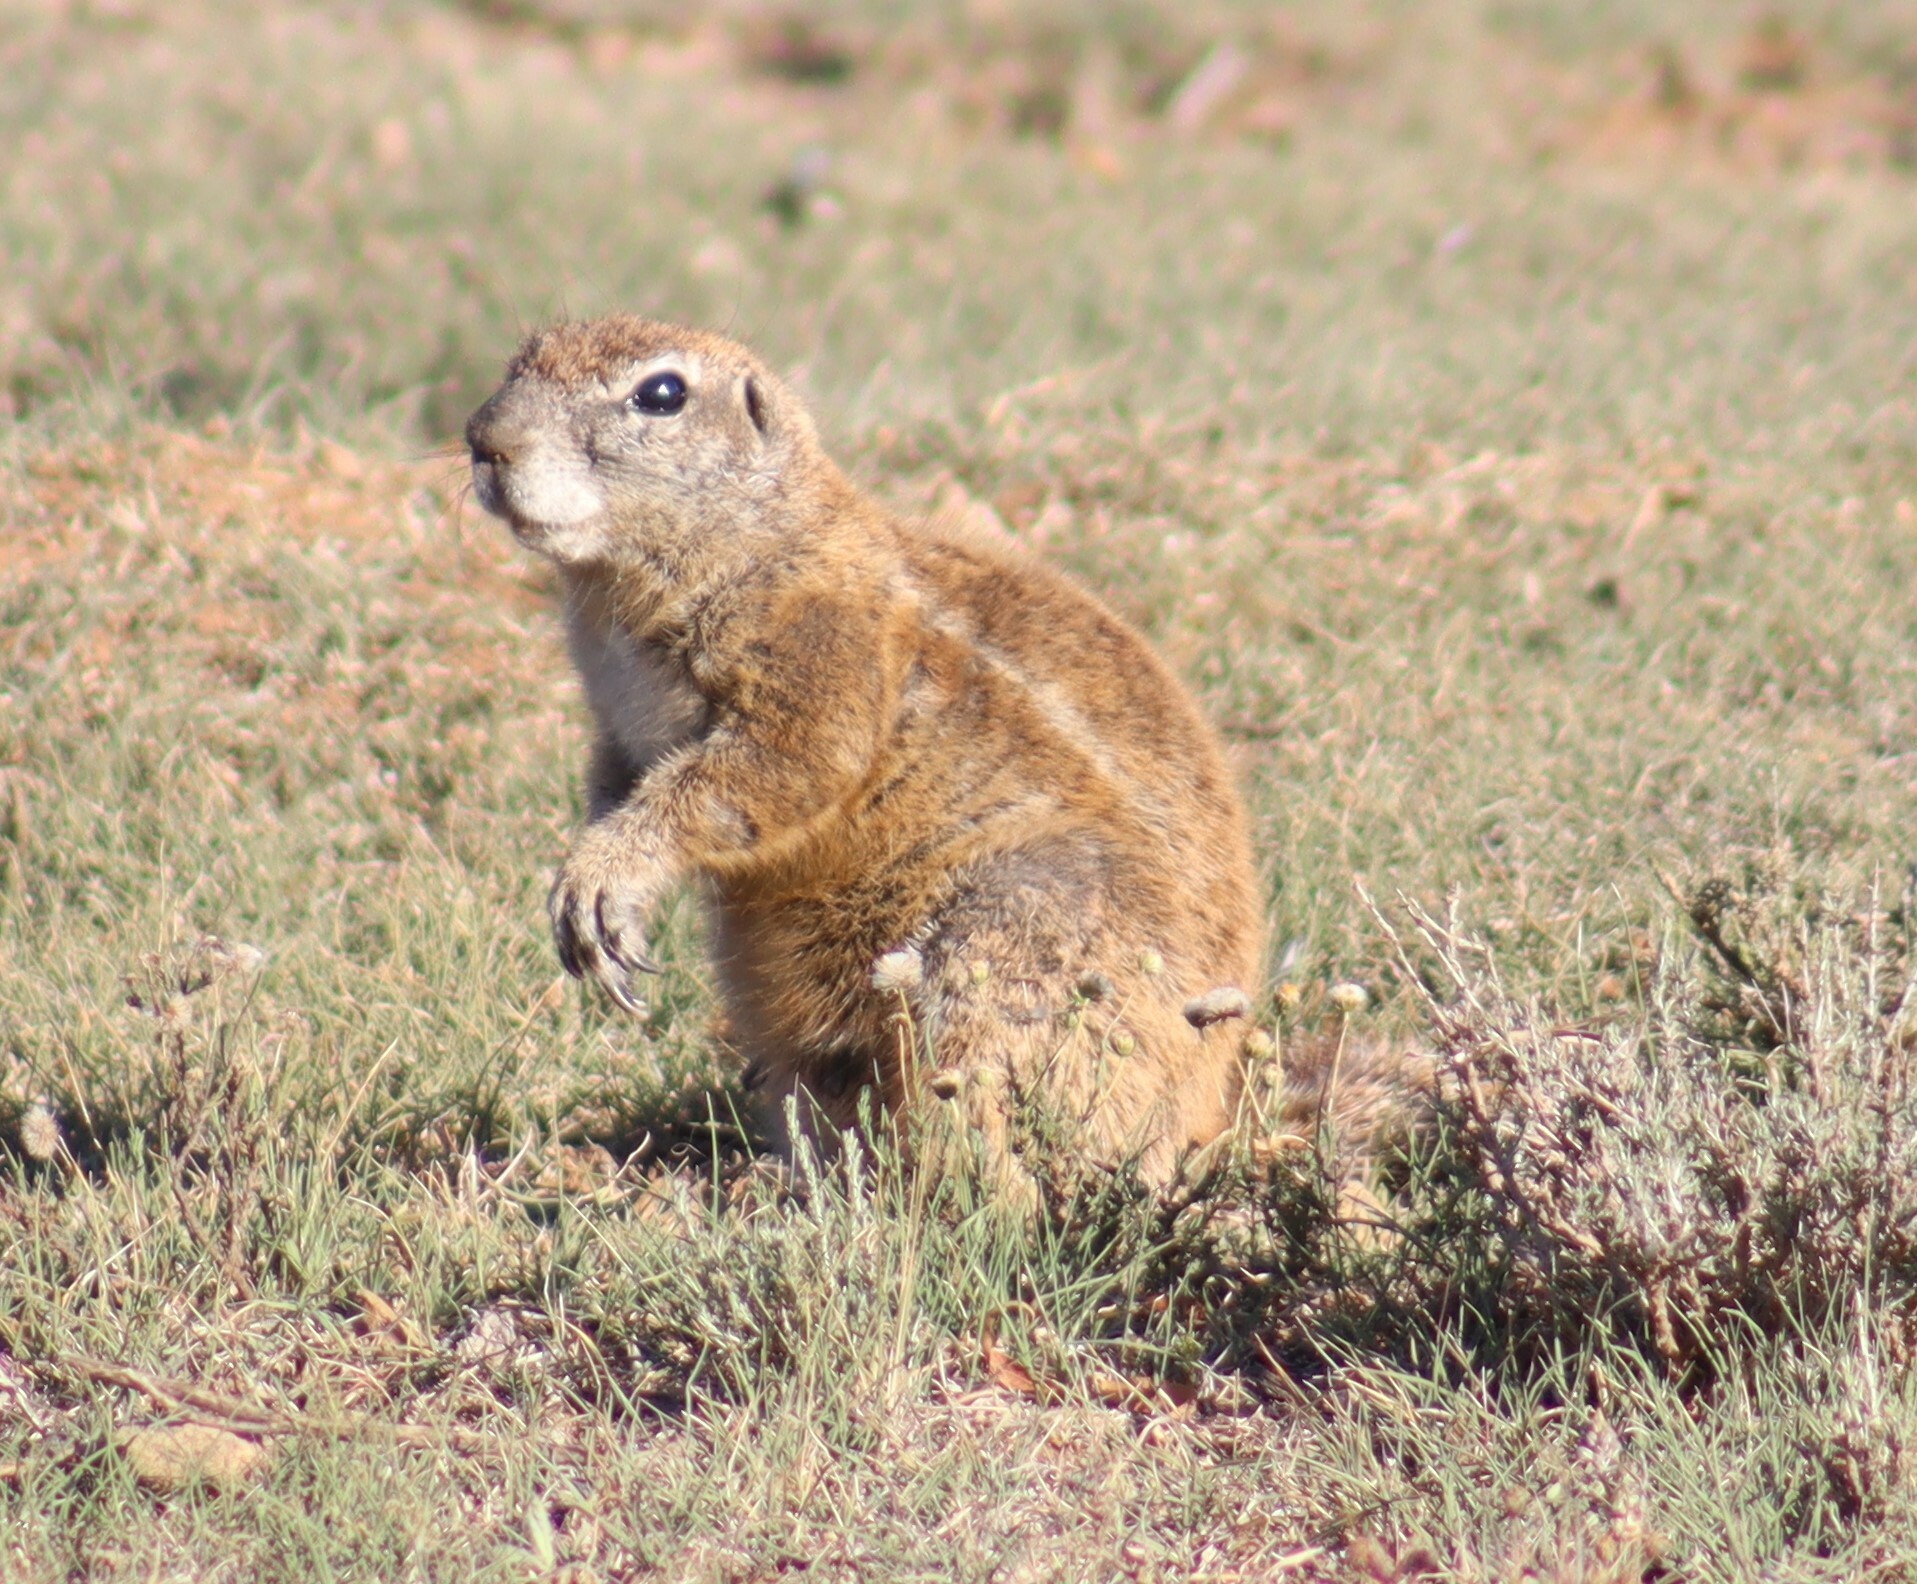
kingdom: Animalia
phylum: Chordata
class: Mammalia
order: Rodentia
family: Sciuridae
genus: Xerus
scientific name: Xerus inauris
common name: South african ground squirrel
